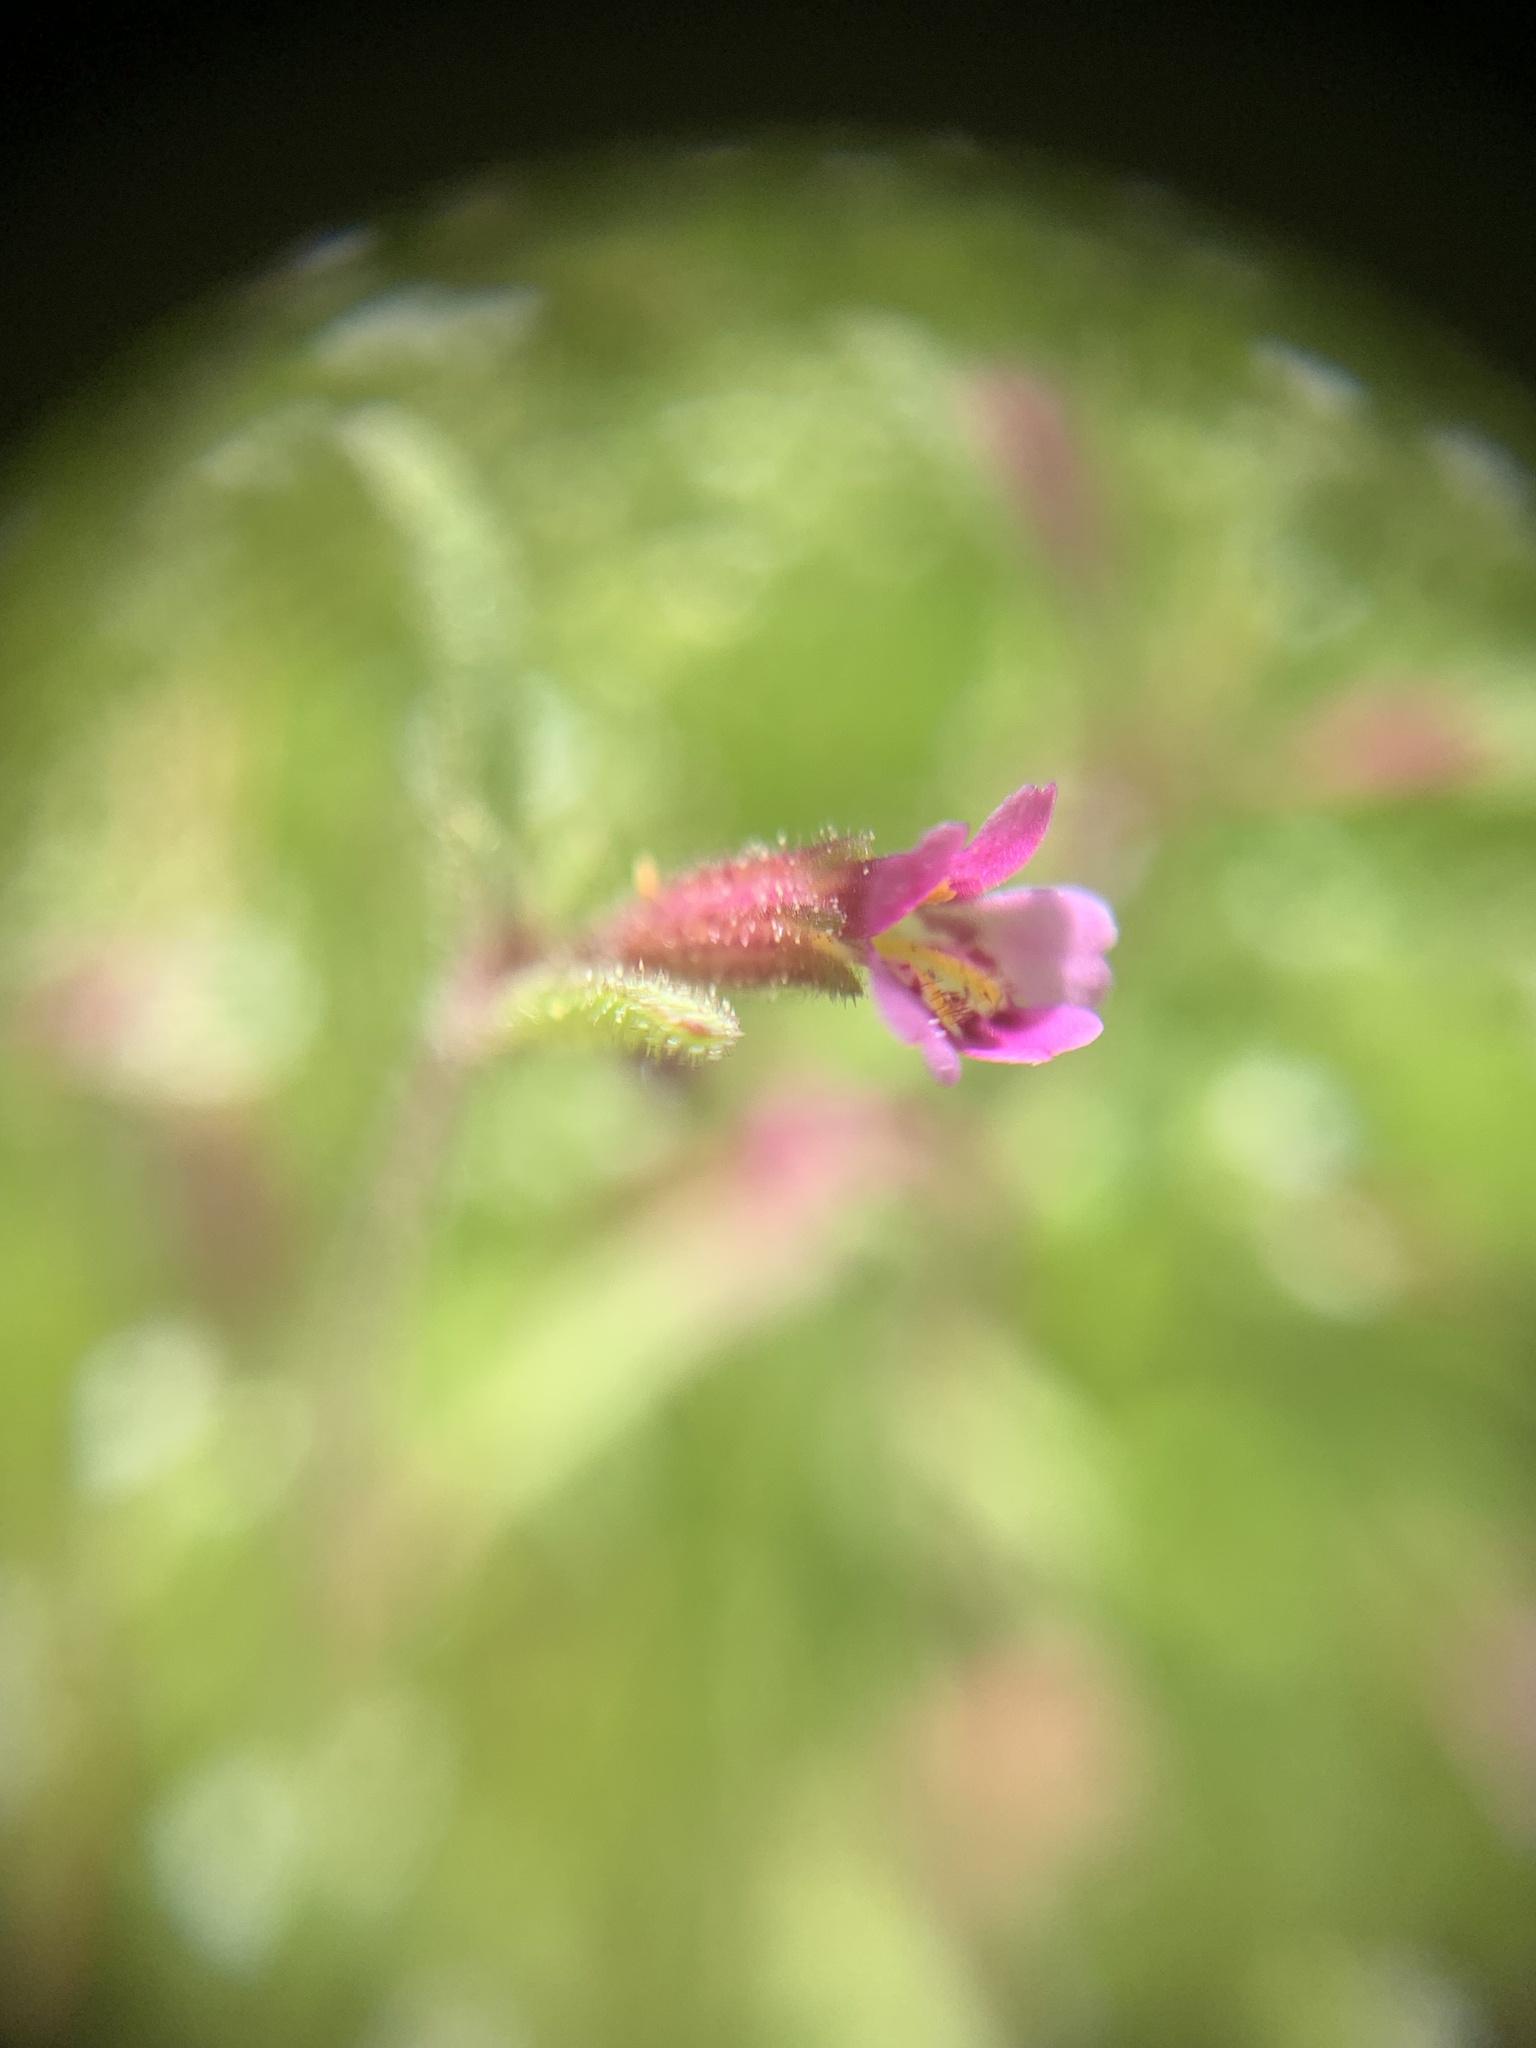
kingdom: Plantae
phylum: Tracheophyta
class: Magnoliopsida
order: Lamiales
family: Phrymaceae
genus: Erythranthe
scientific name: Erythranthe breweri
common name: Brewer's monkeyflower
